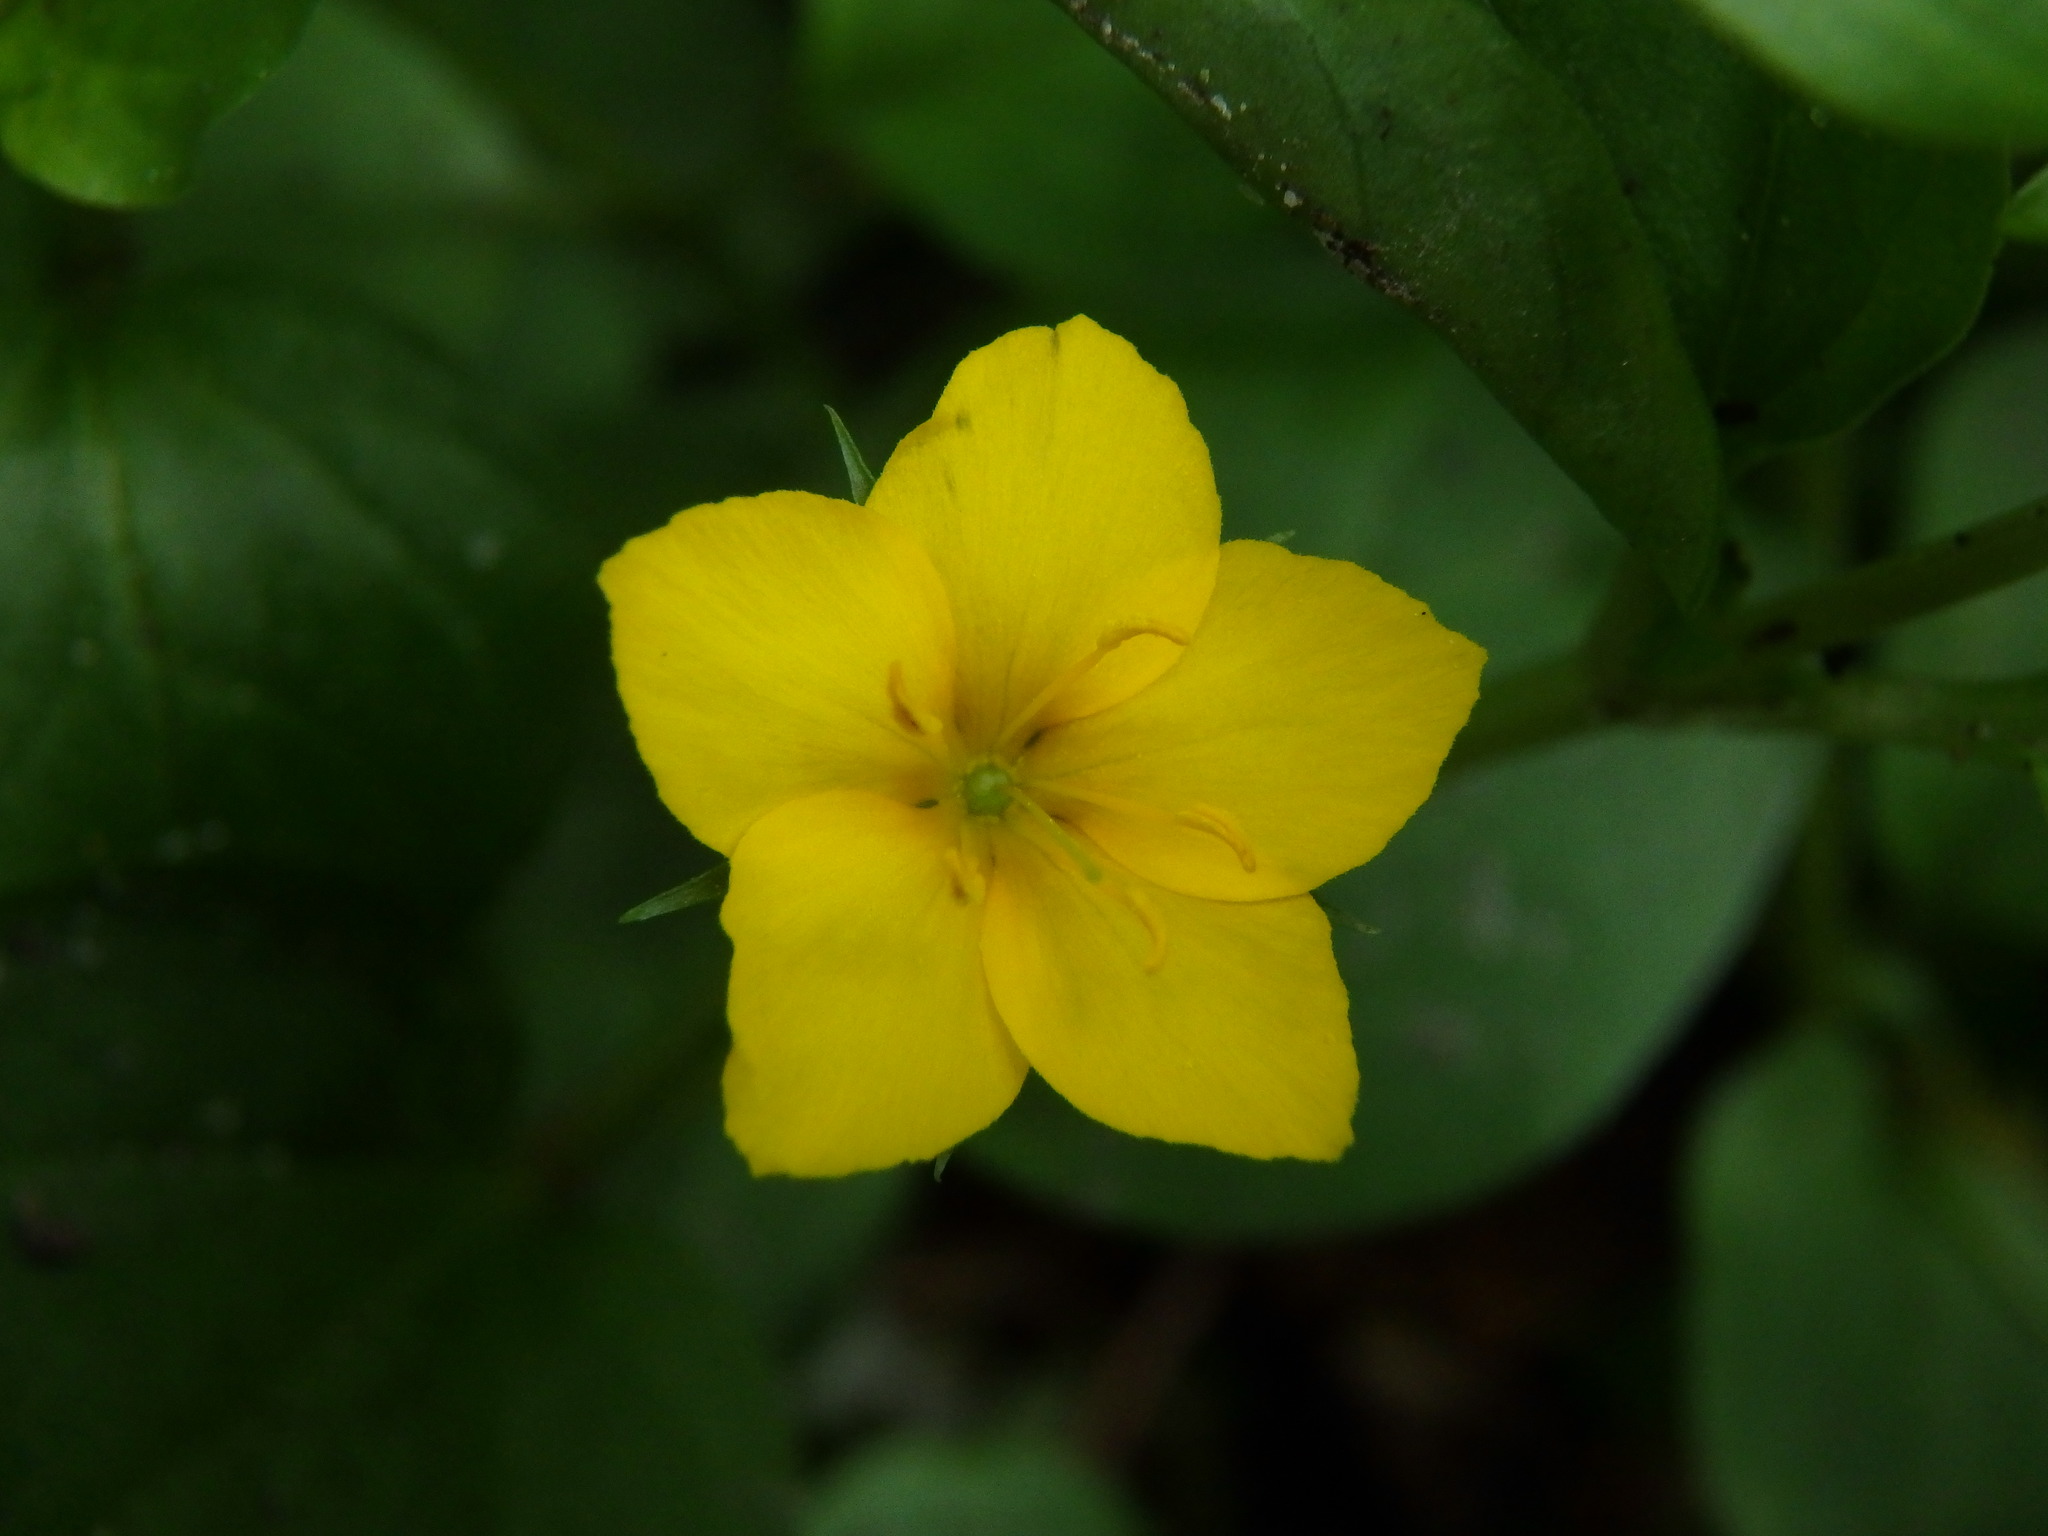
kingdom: Plantae
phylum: Tracheophyta
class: Magnoliopsida
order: Ericales
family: Primulaceae
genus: Lysimachia
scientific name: Lysimachia nemorum
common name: Yellow pimpernel
